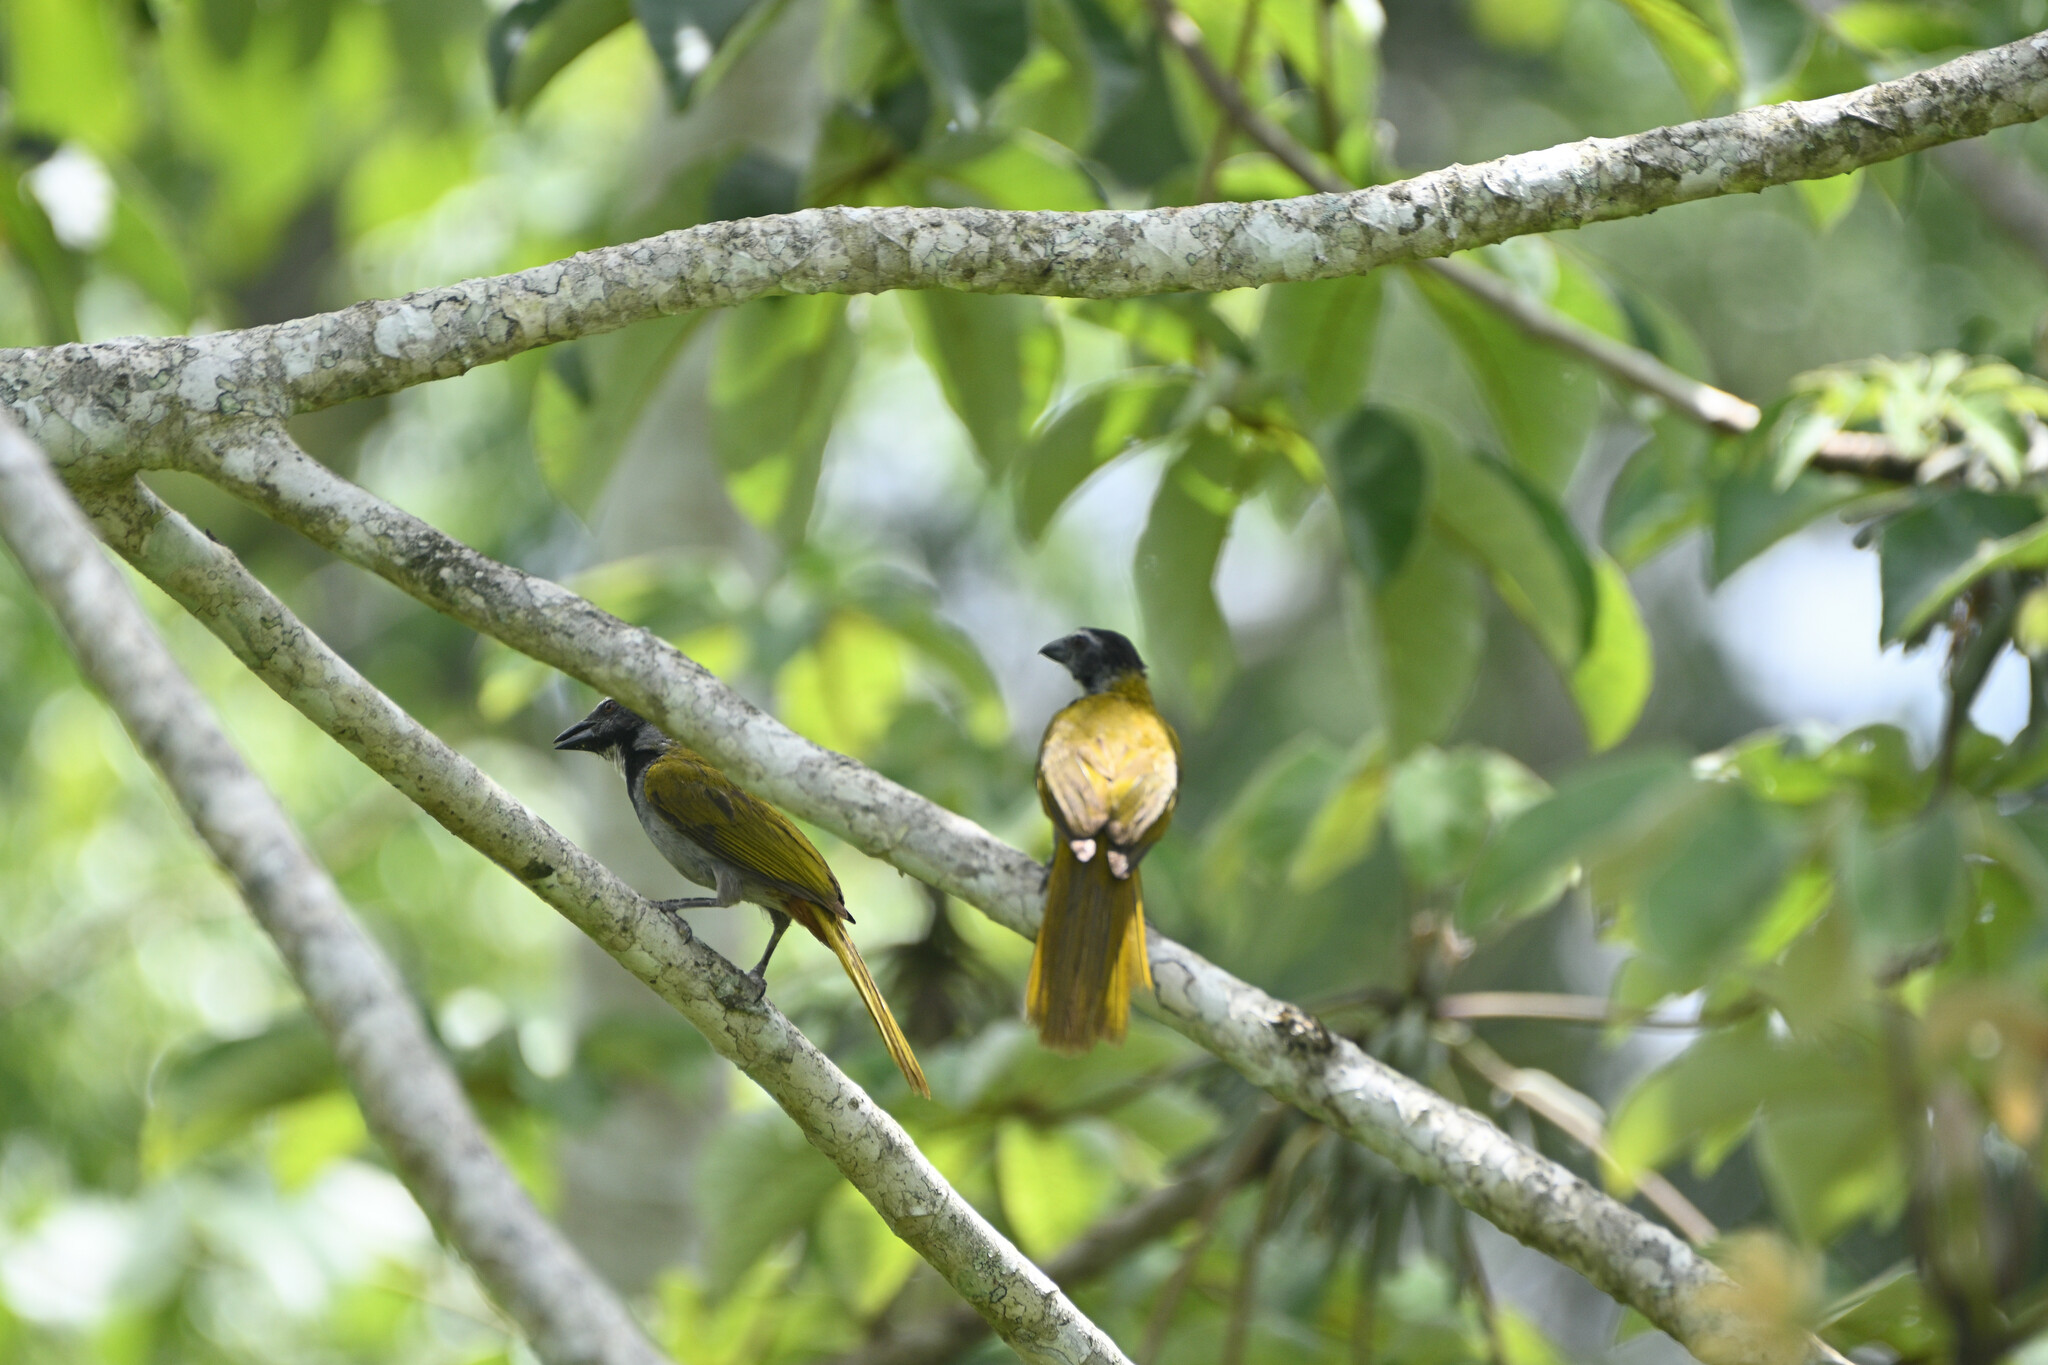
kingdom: Animalia
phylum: Chordata
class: Aves
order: Passeriformes
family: Thraupidae
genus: Saltator
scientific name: Saltator atriceps
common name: Black-headed saltator
